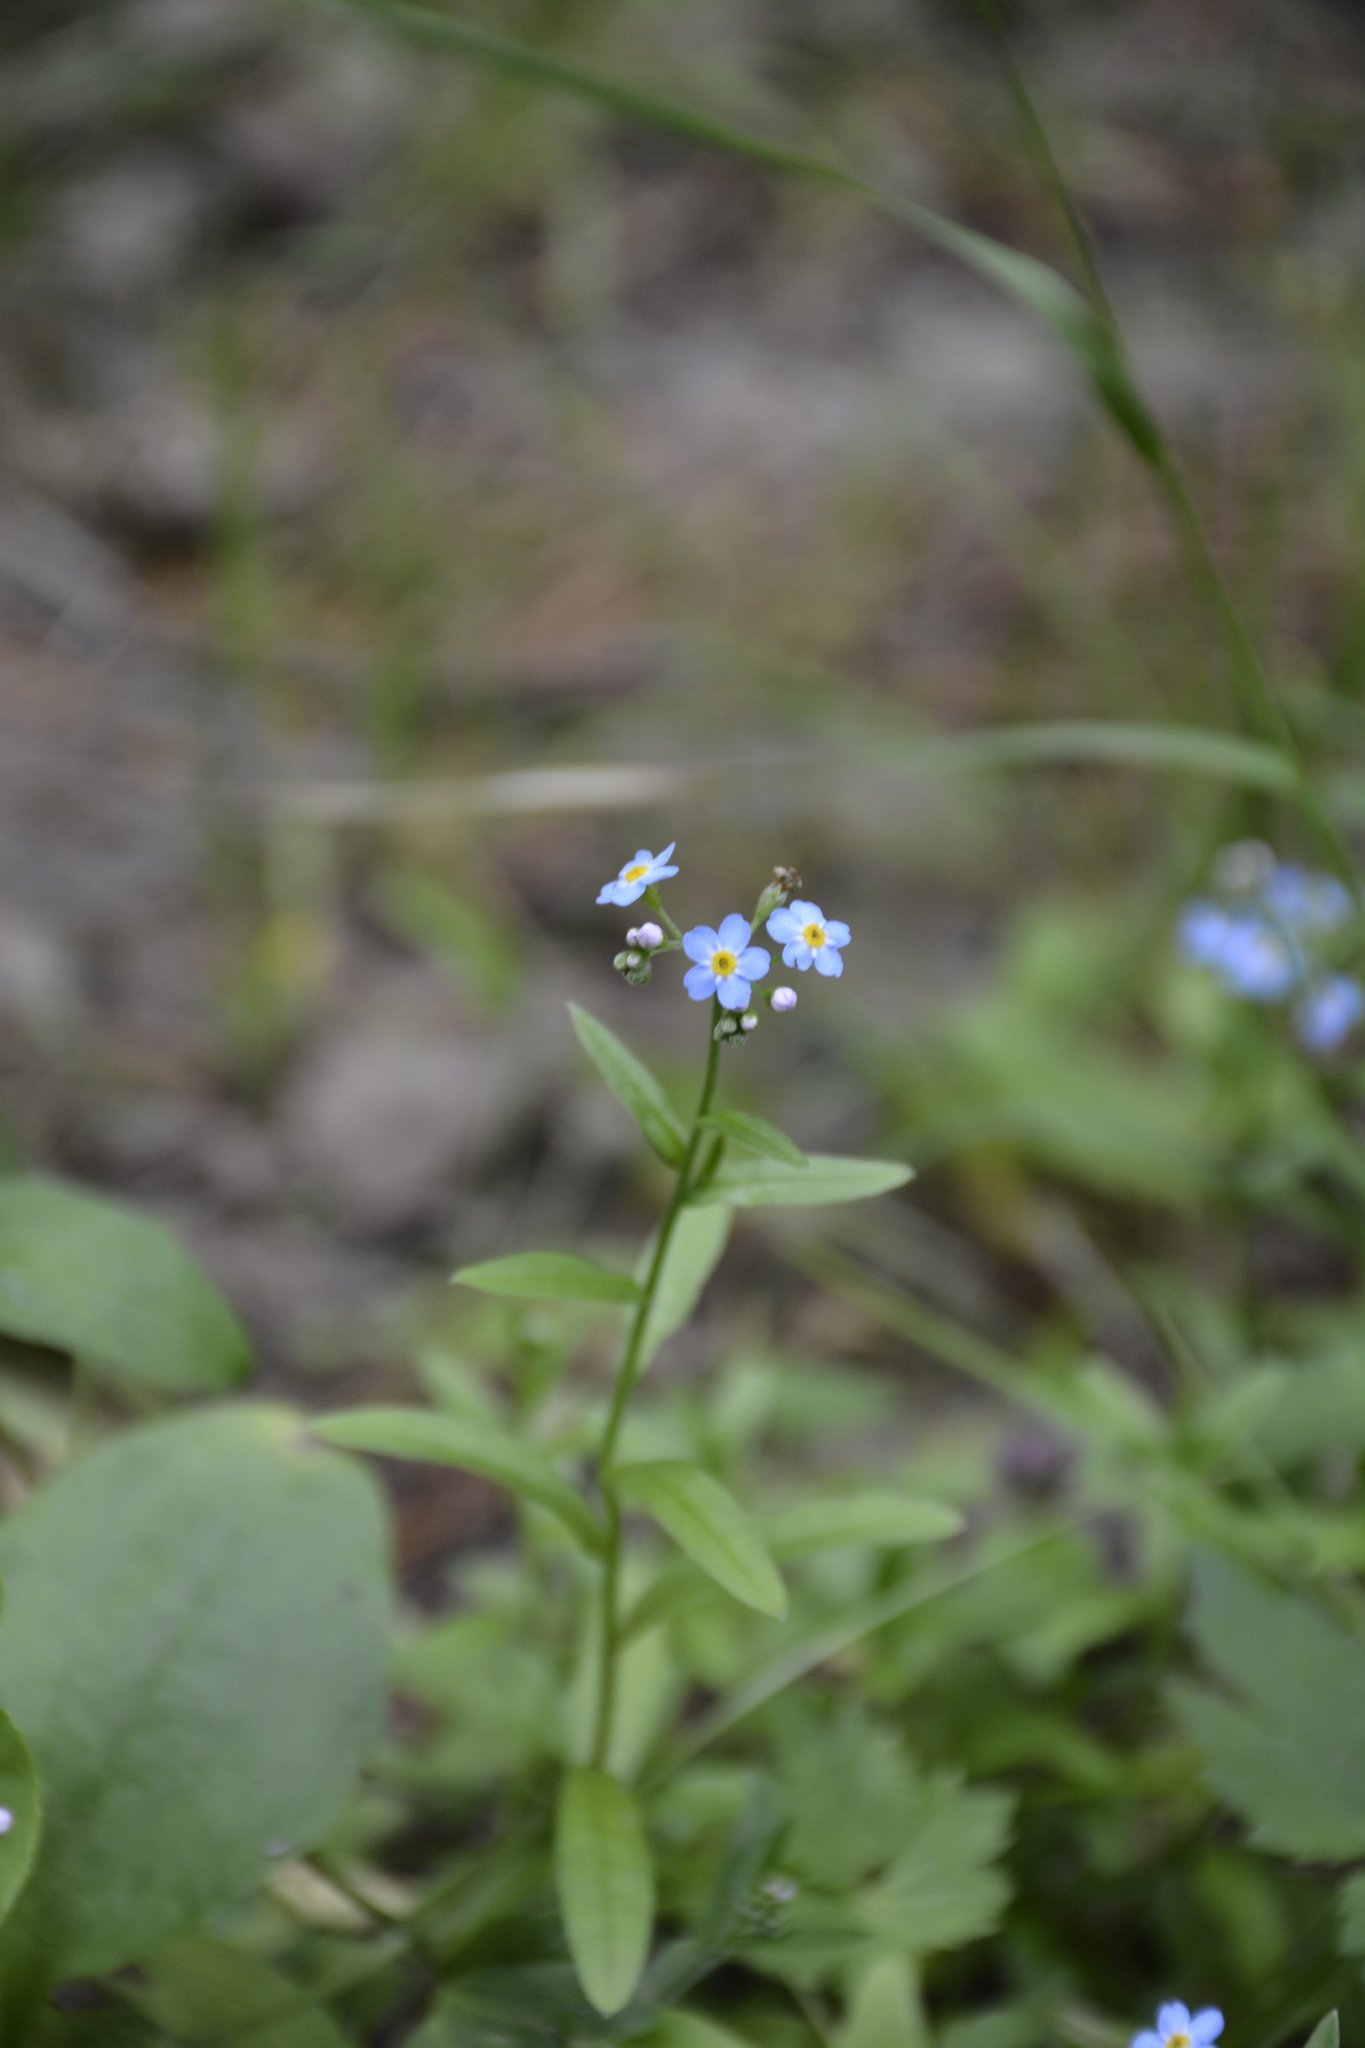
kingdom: Plantae
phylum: Tracheophyta
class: Magnoliopsida
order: Boraginales
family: Boraginaceae
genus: Myosotis
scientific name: Myosotis scorpioides
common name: Water forget-me-not
